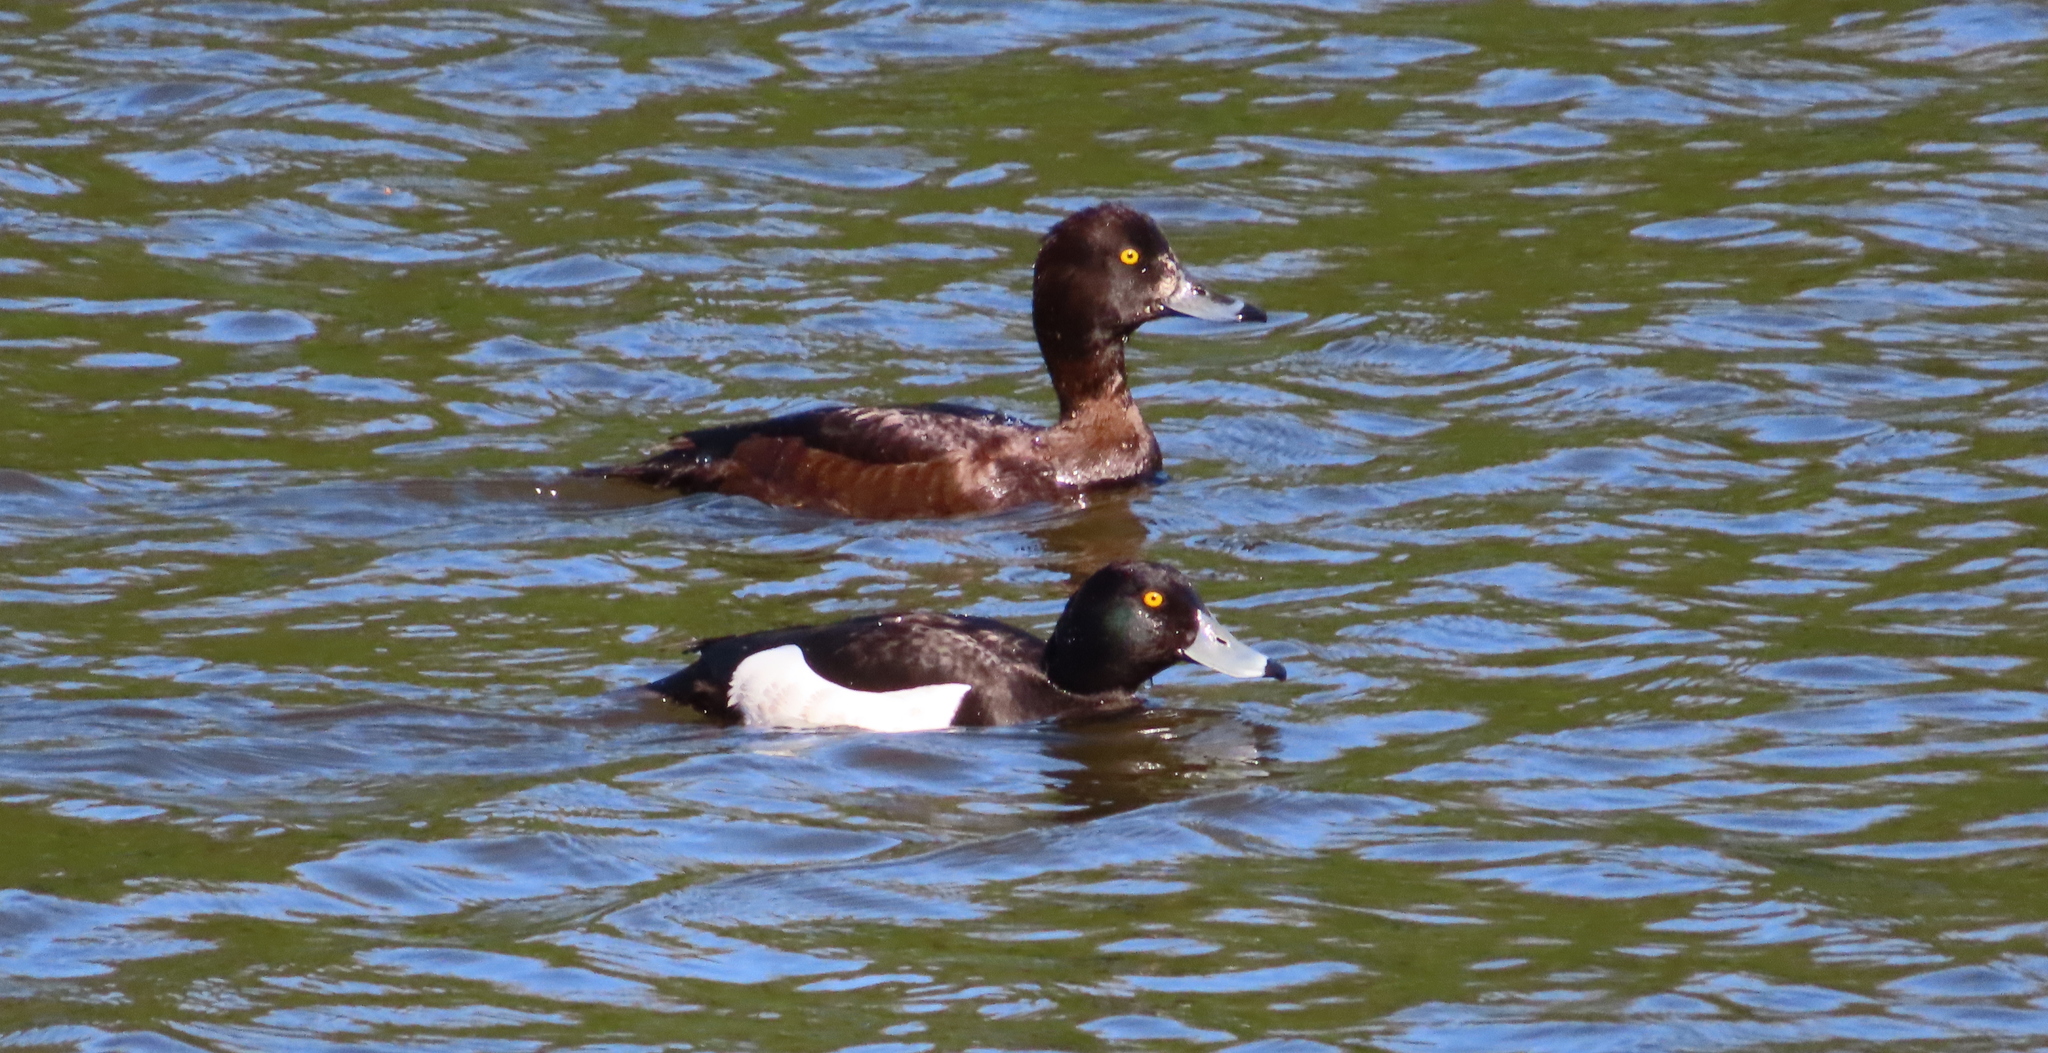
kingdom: Animalia
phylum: Chordata
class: Aves
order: Anseriformes
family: Anatidae
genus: Aythya
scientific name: Aythya fuligula
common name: Tufted duck
